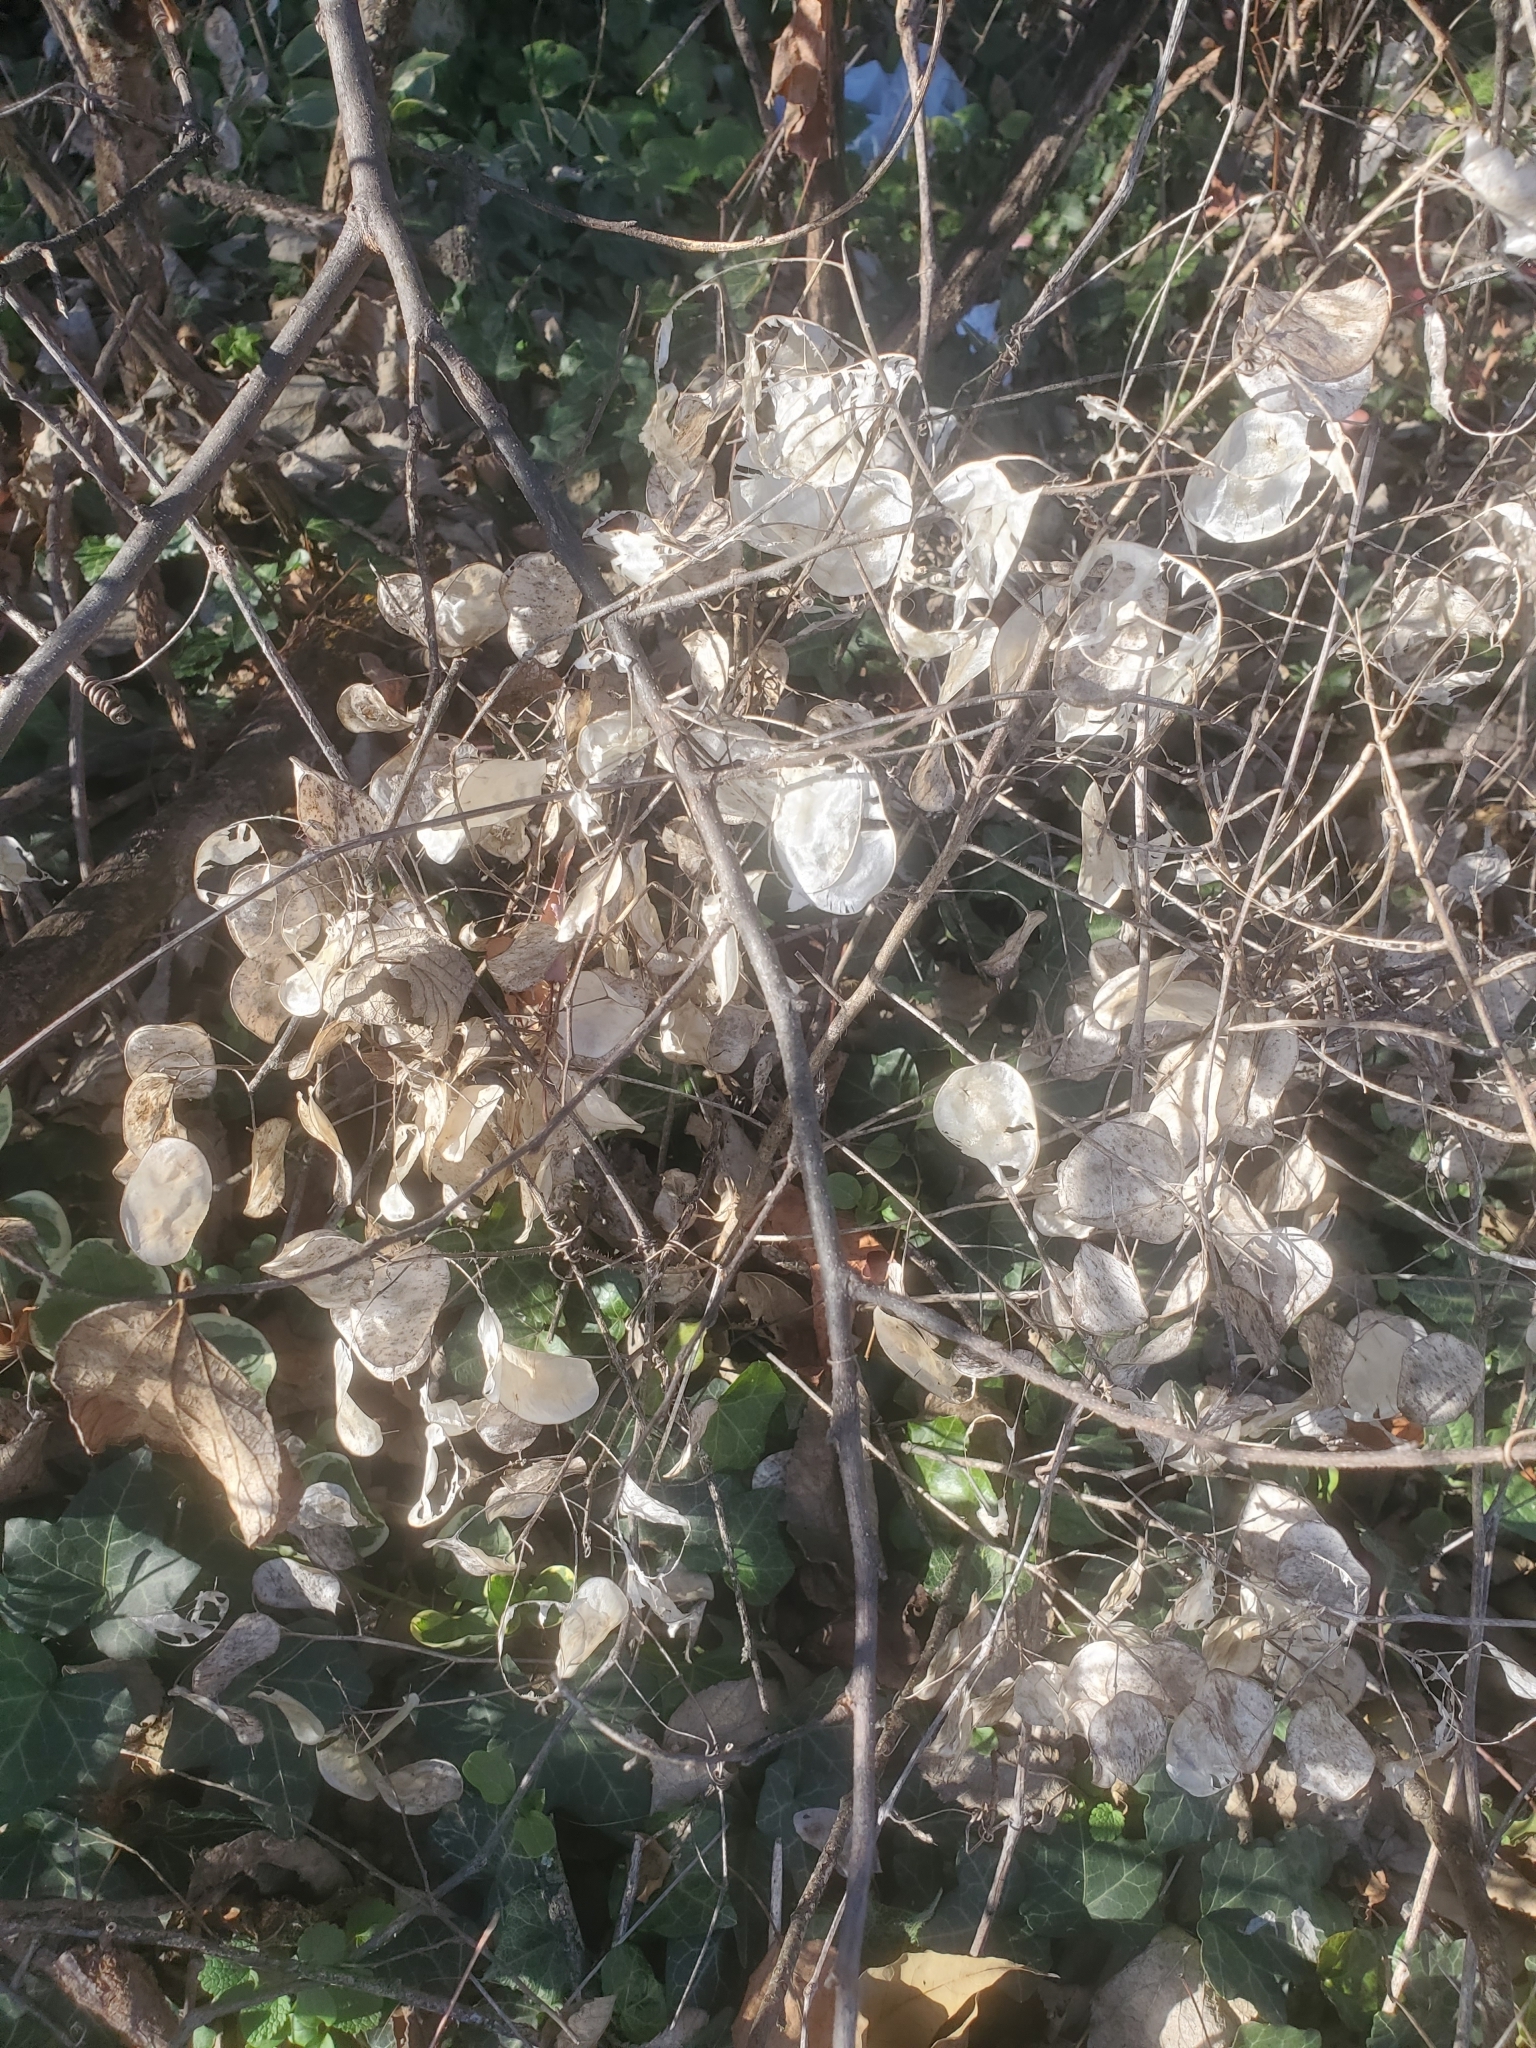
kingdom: Plantae
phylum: Tracheophyta
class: Magnoliopsida
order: Brassicales
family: Brassicaceae
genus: Lunaria
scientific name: Lunaria annua
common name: Honesty
